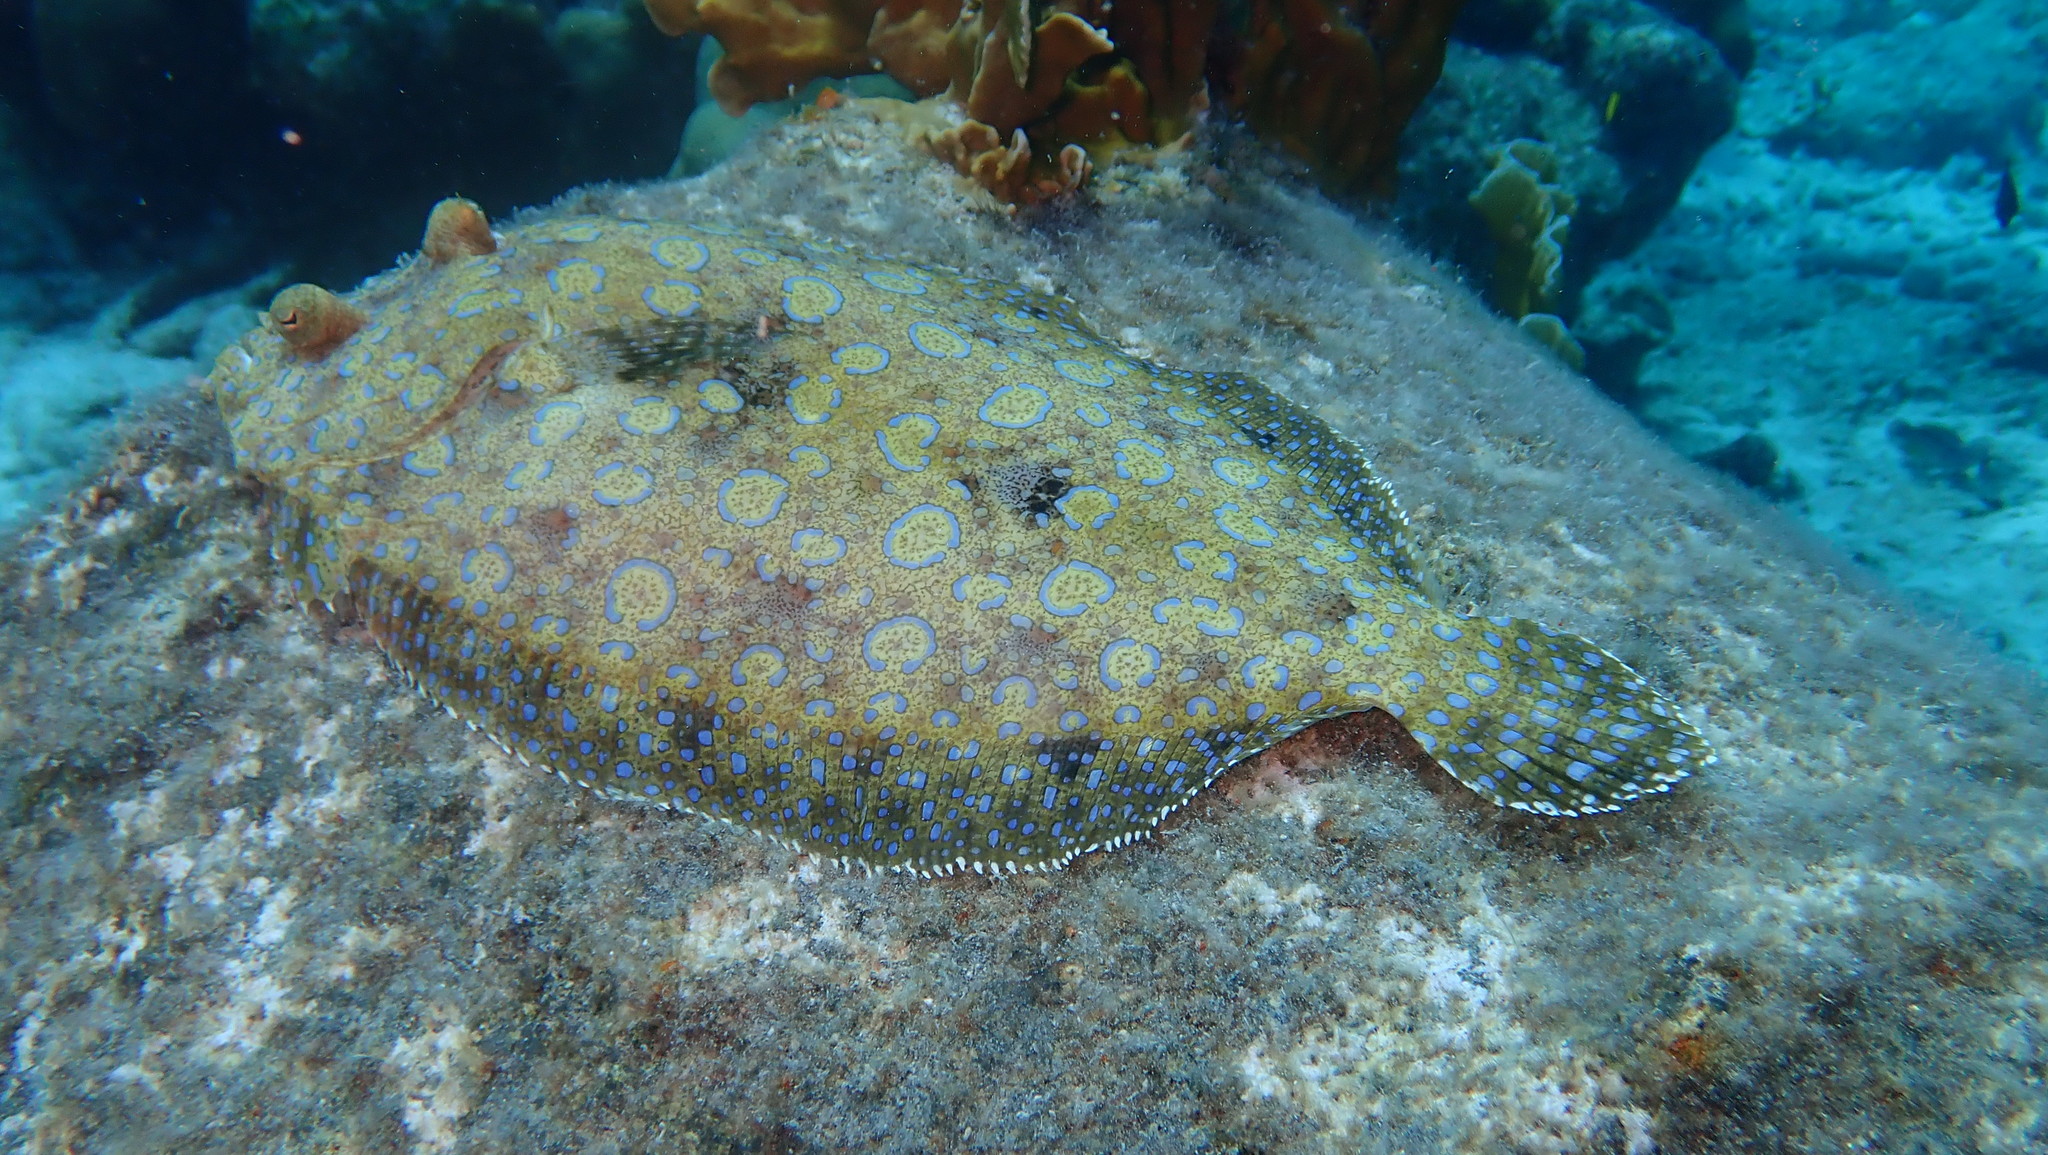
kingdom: Animalia
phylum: Chordata
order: Pleuronectiformes
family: Bothidae
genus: Bothus
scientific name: Bothus lunatus
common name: Peacock flounder
